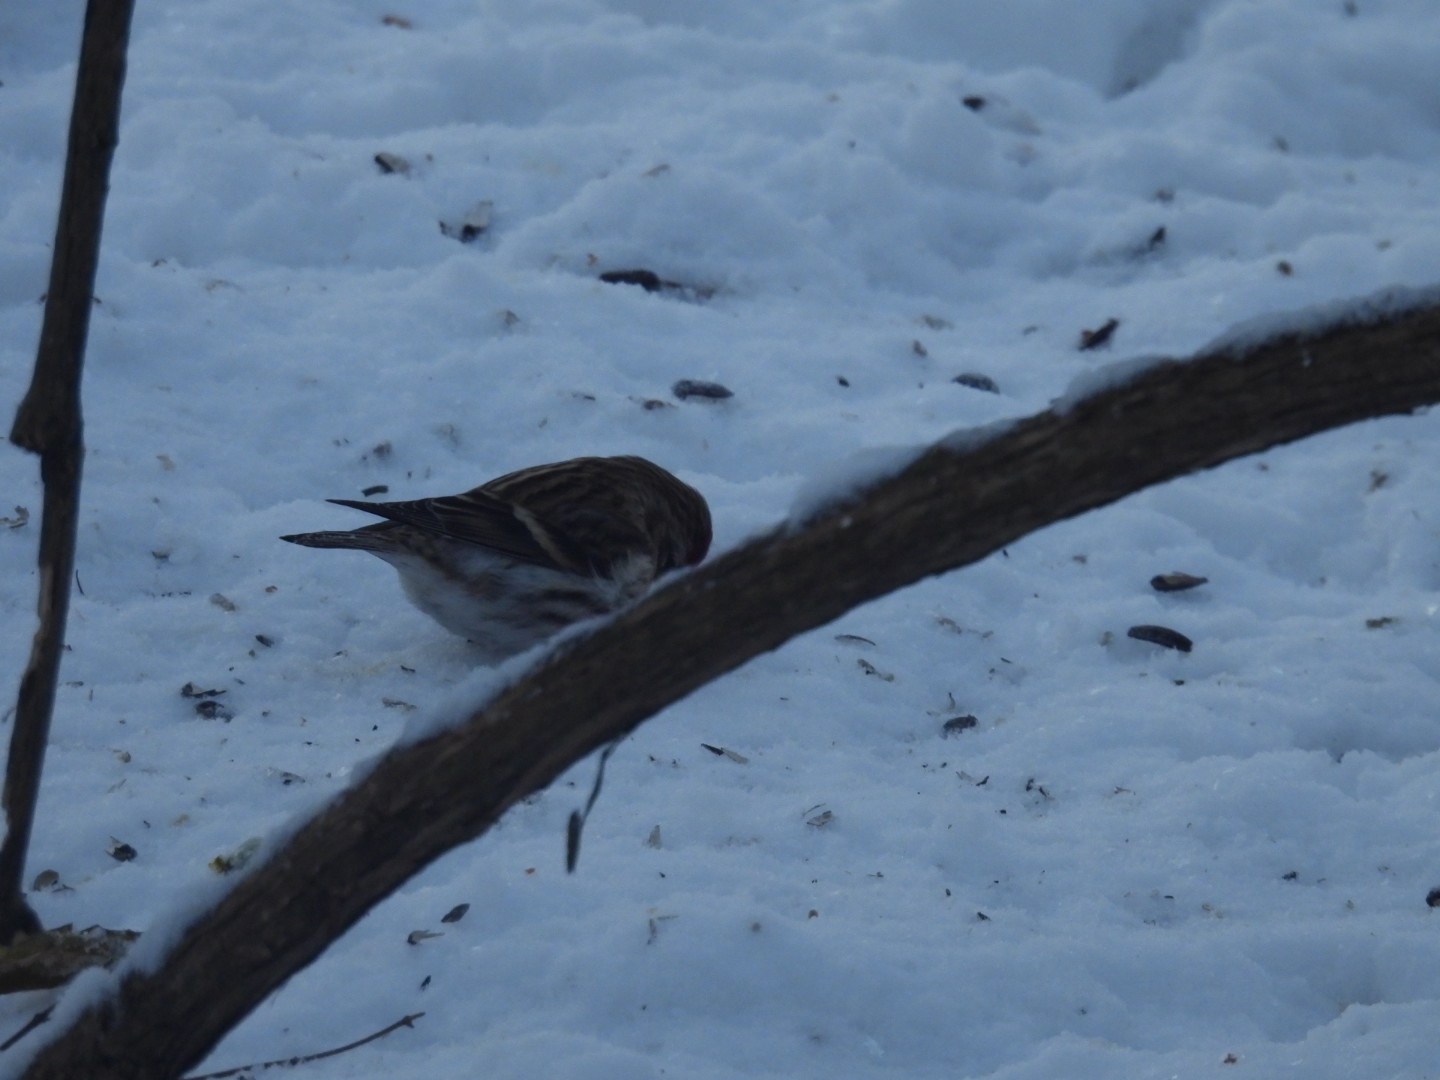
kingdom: Animalia
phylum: Chordata
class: Aves
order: Passeriformes
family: Fringillidae
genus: Acanthis
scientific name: Acanthis flammea
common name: Common redpoll
